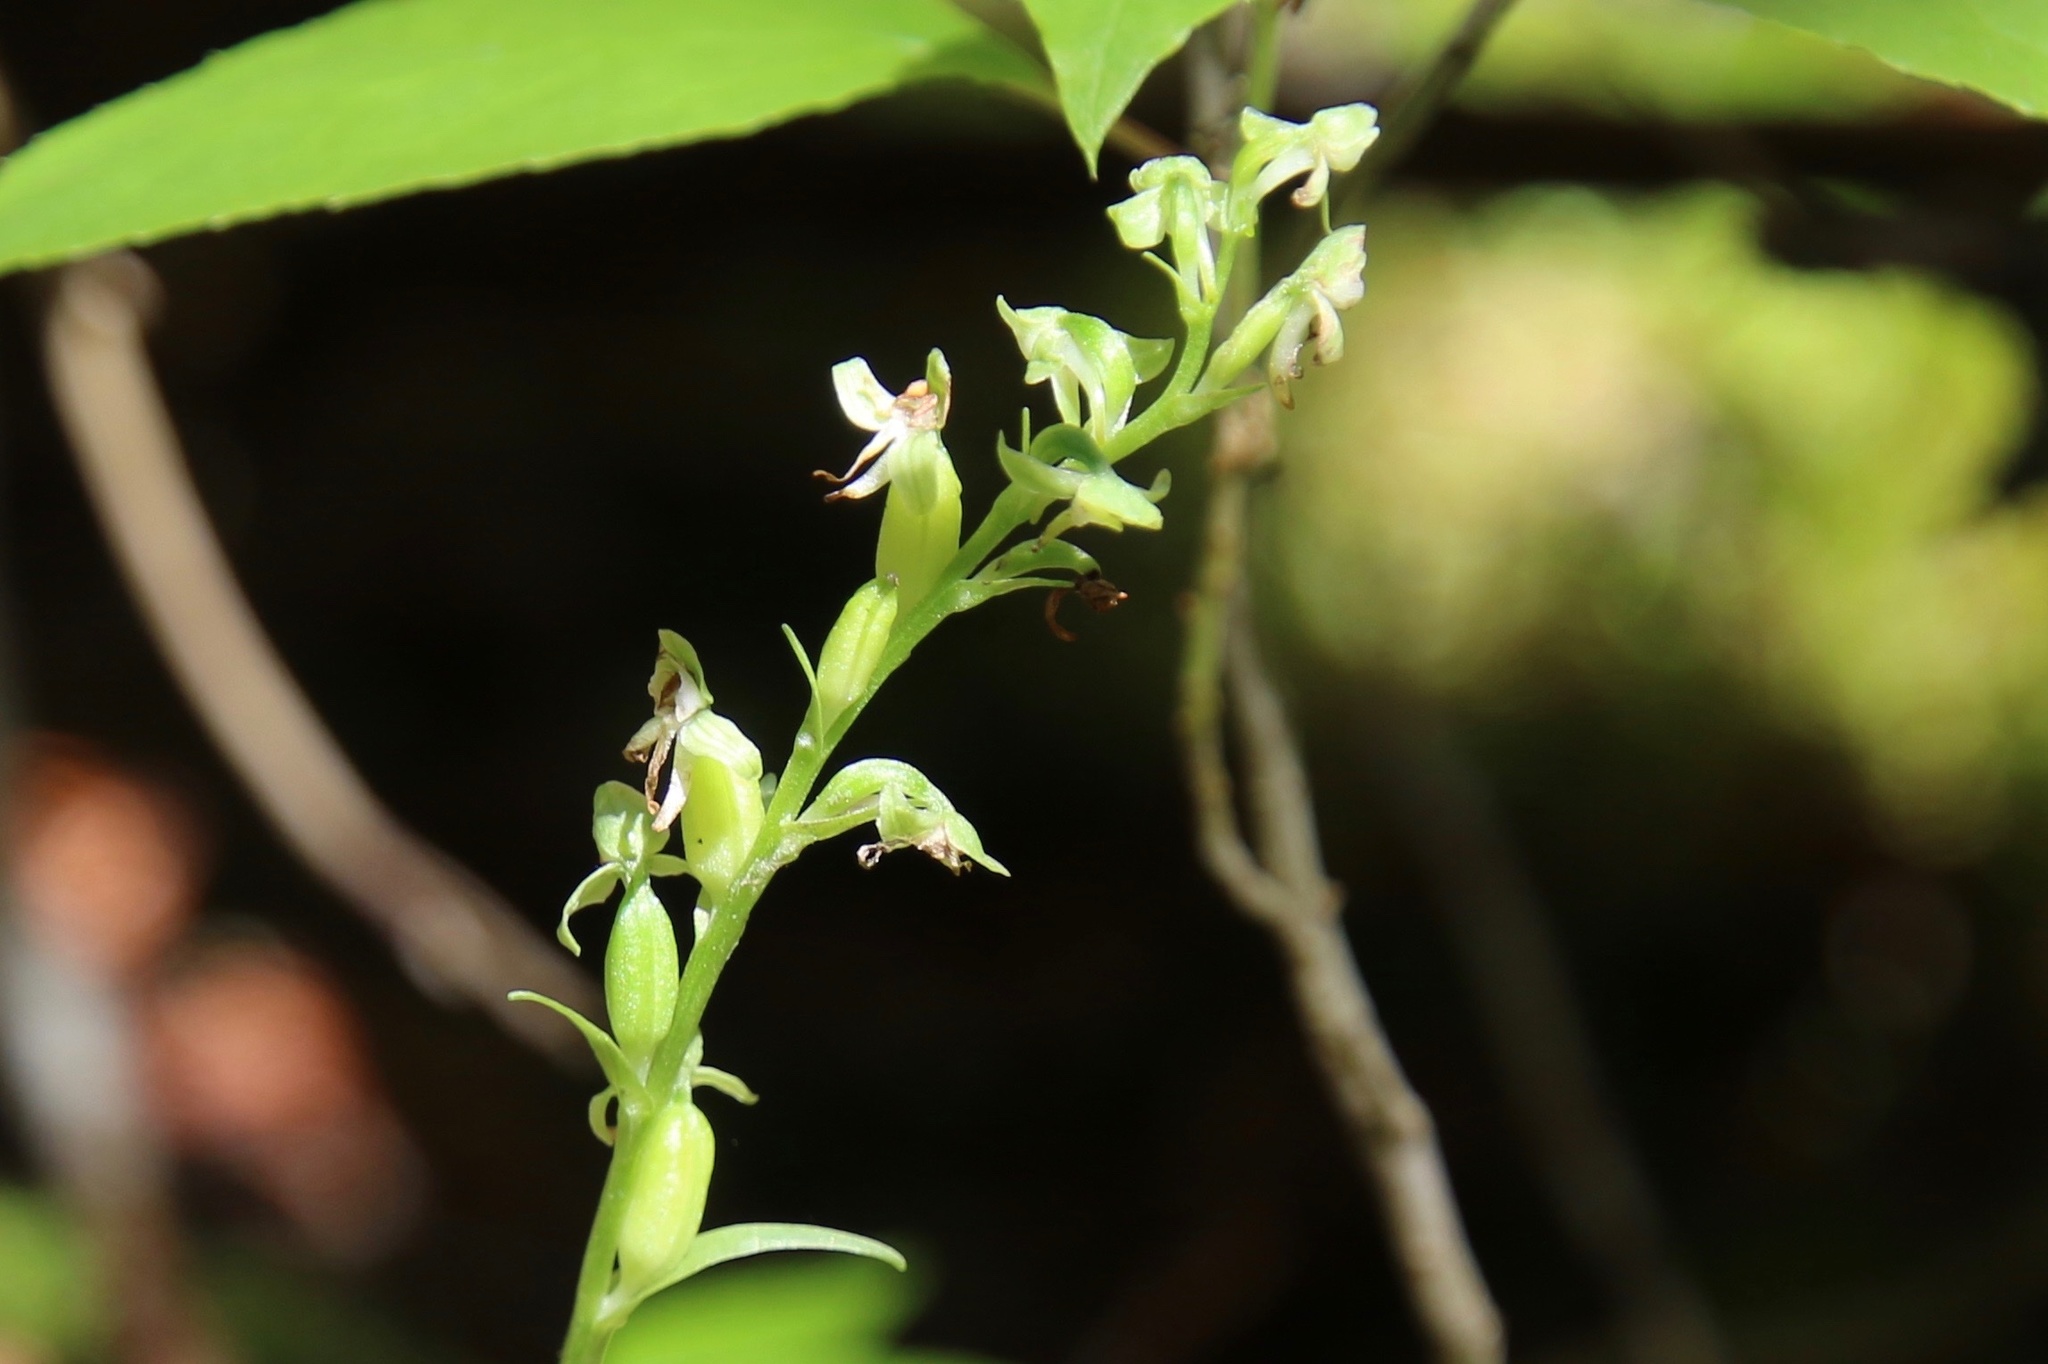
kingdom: Plantae
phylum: Tracheophyta
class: Liliopsida
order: Asparagales
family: Orchidaceae
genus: Platanthera
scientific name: Platanthera obtusata
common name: Blunt bog orchid
